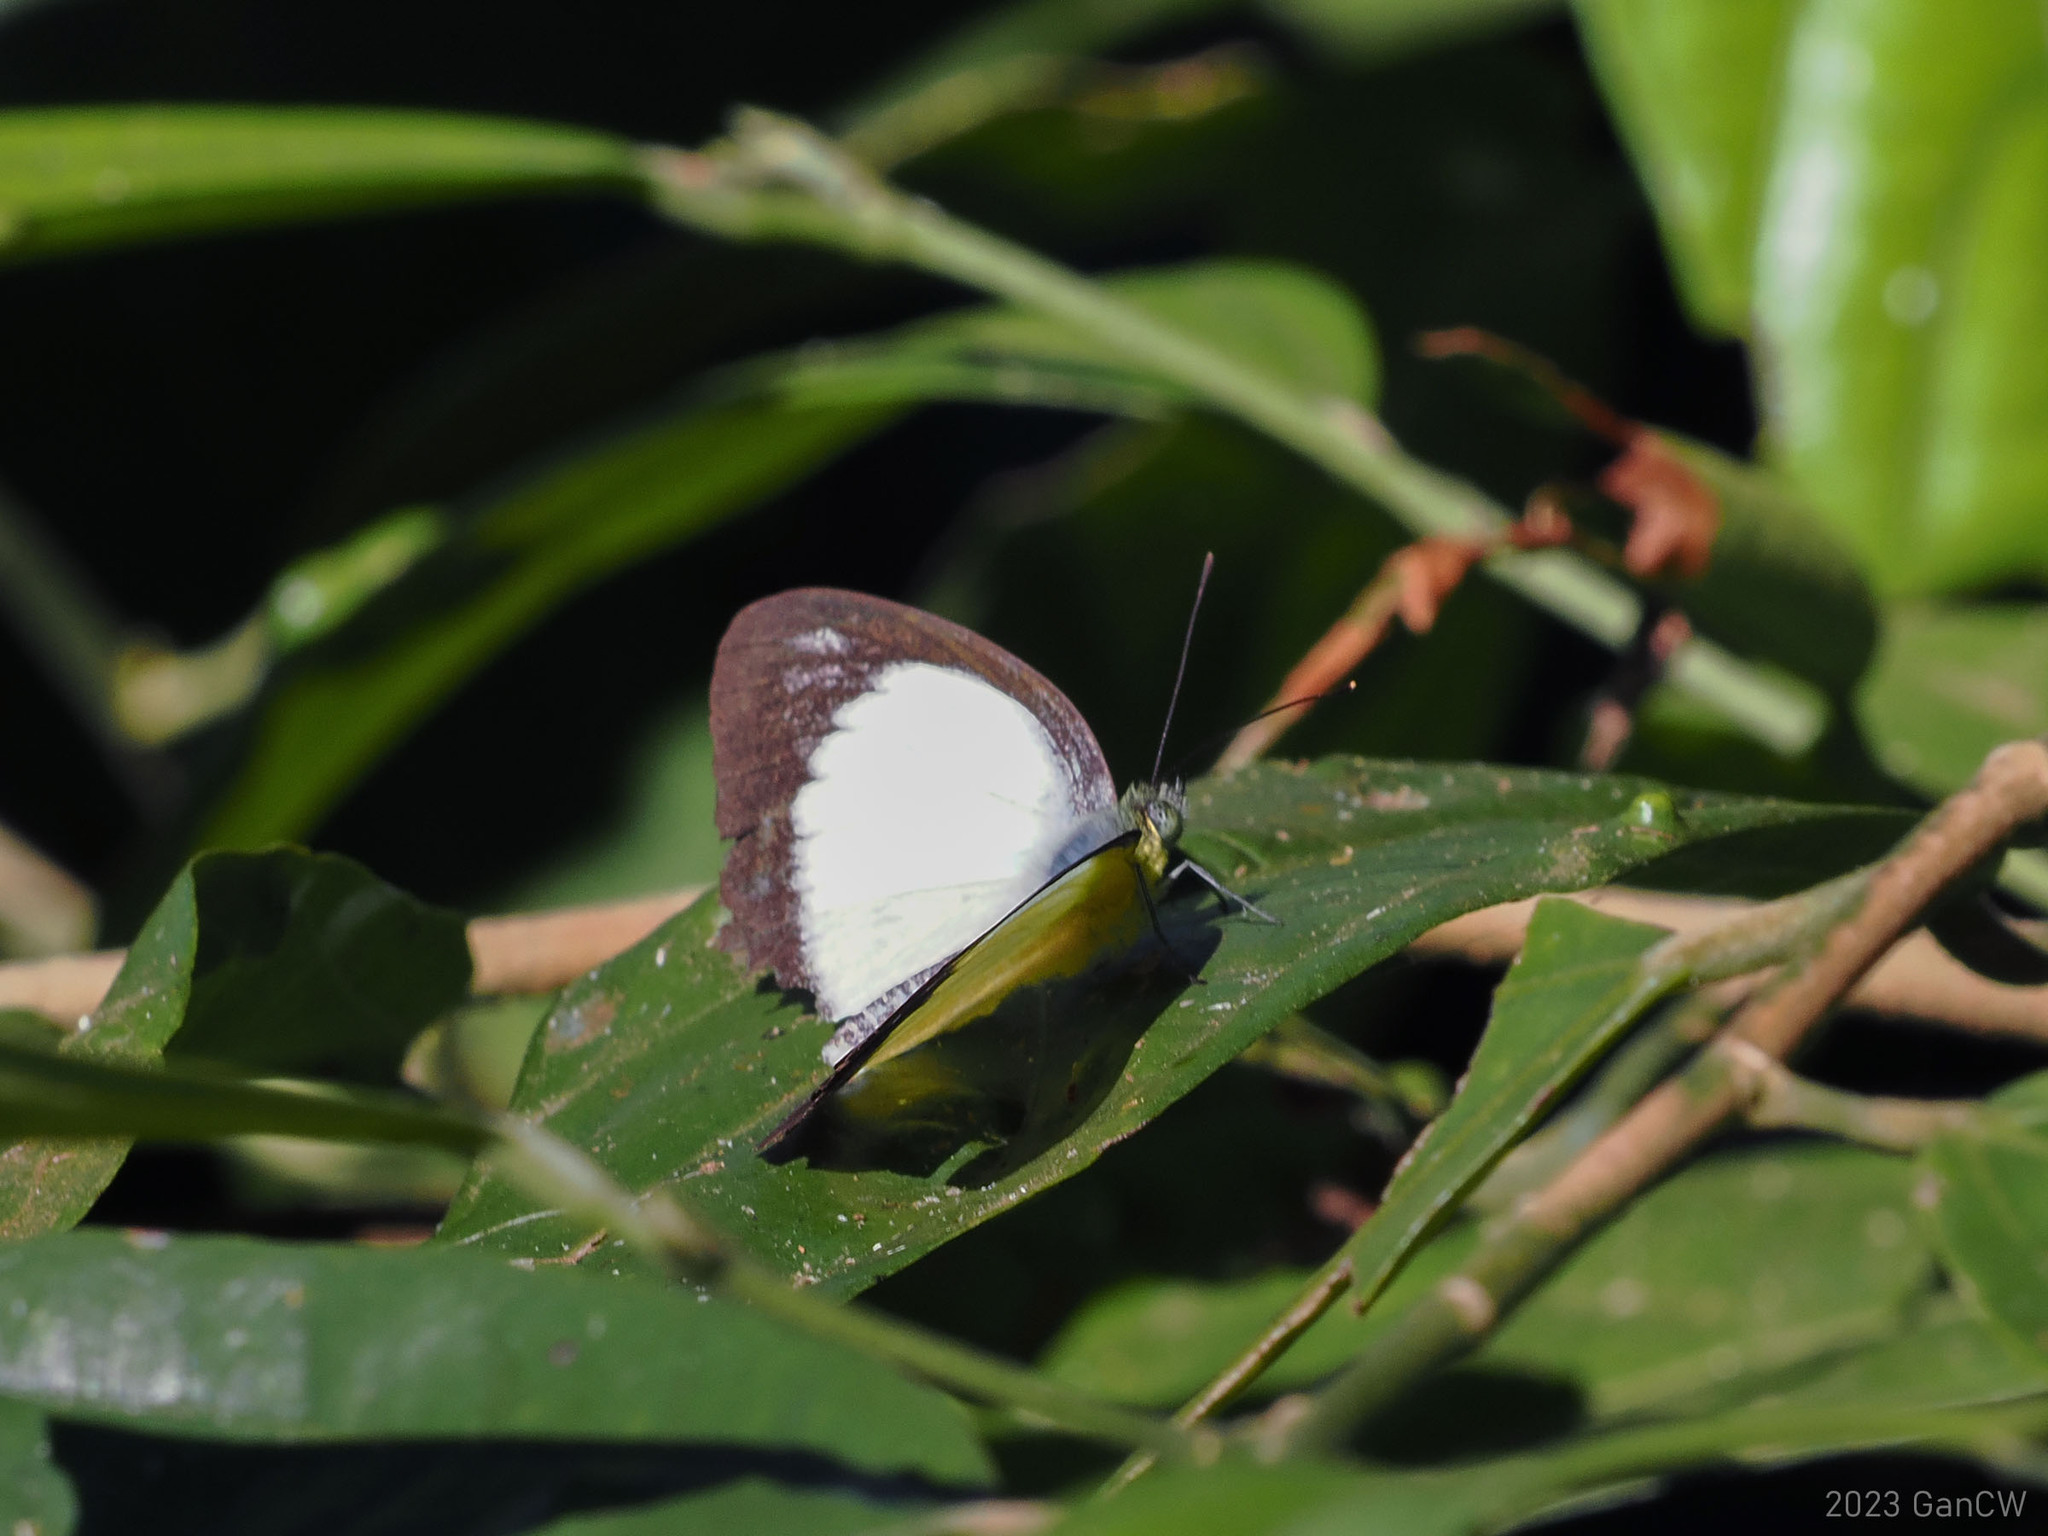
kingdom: Animalia
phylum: Arthropoda
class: Insecta
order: Lepidoptera
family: Pieridae
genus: Cepora
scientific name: Cepora boisduvaliana
